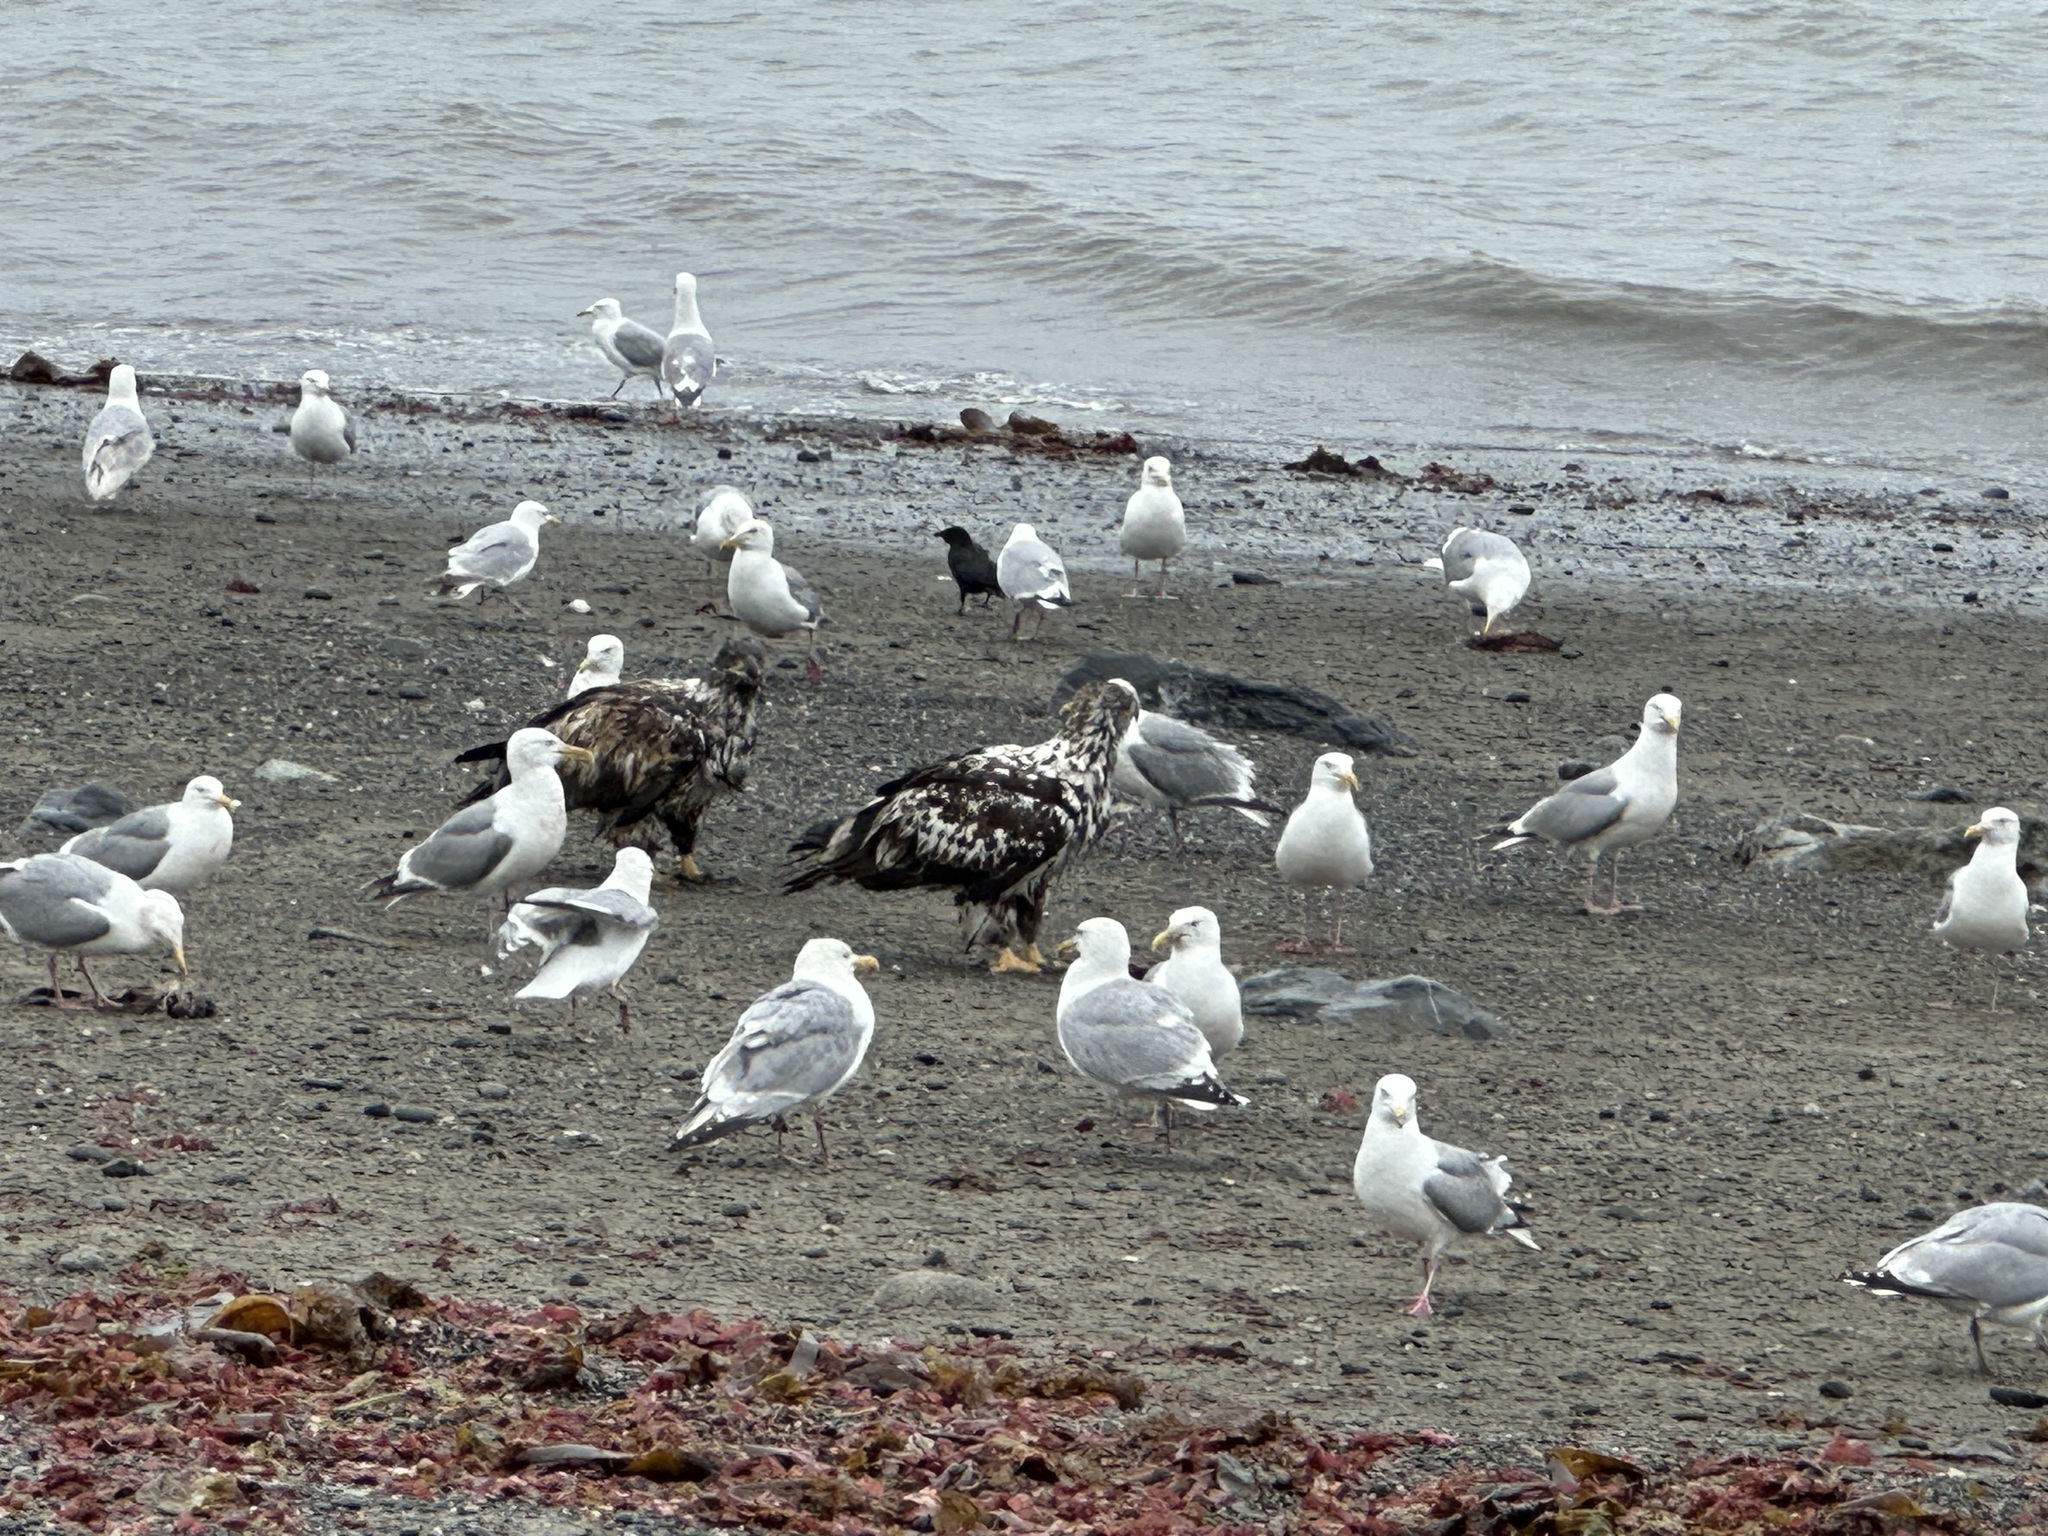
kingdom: Animalia
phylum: Chordata
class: Aves
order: Accipitriformes
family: Accipitridae
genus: Haliaeetus
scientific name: Haliaeetus leucocephalus
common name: Bald eagle
